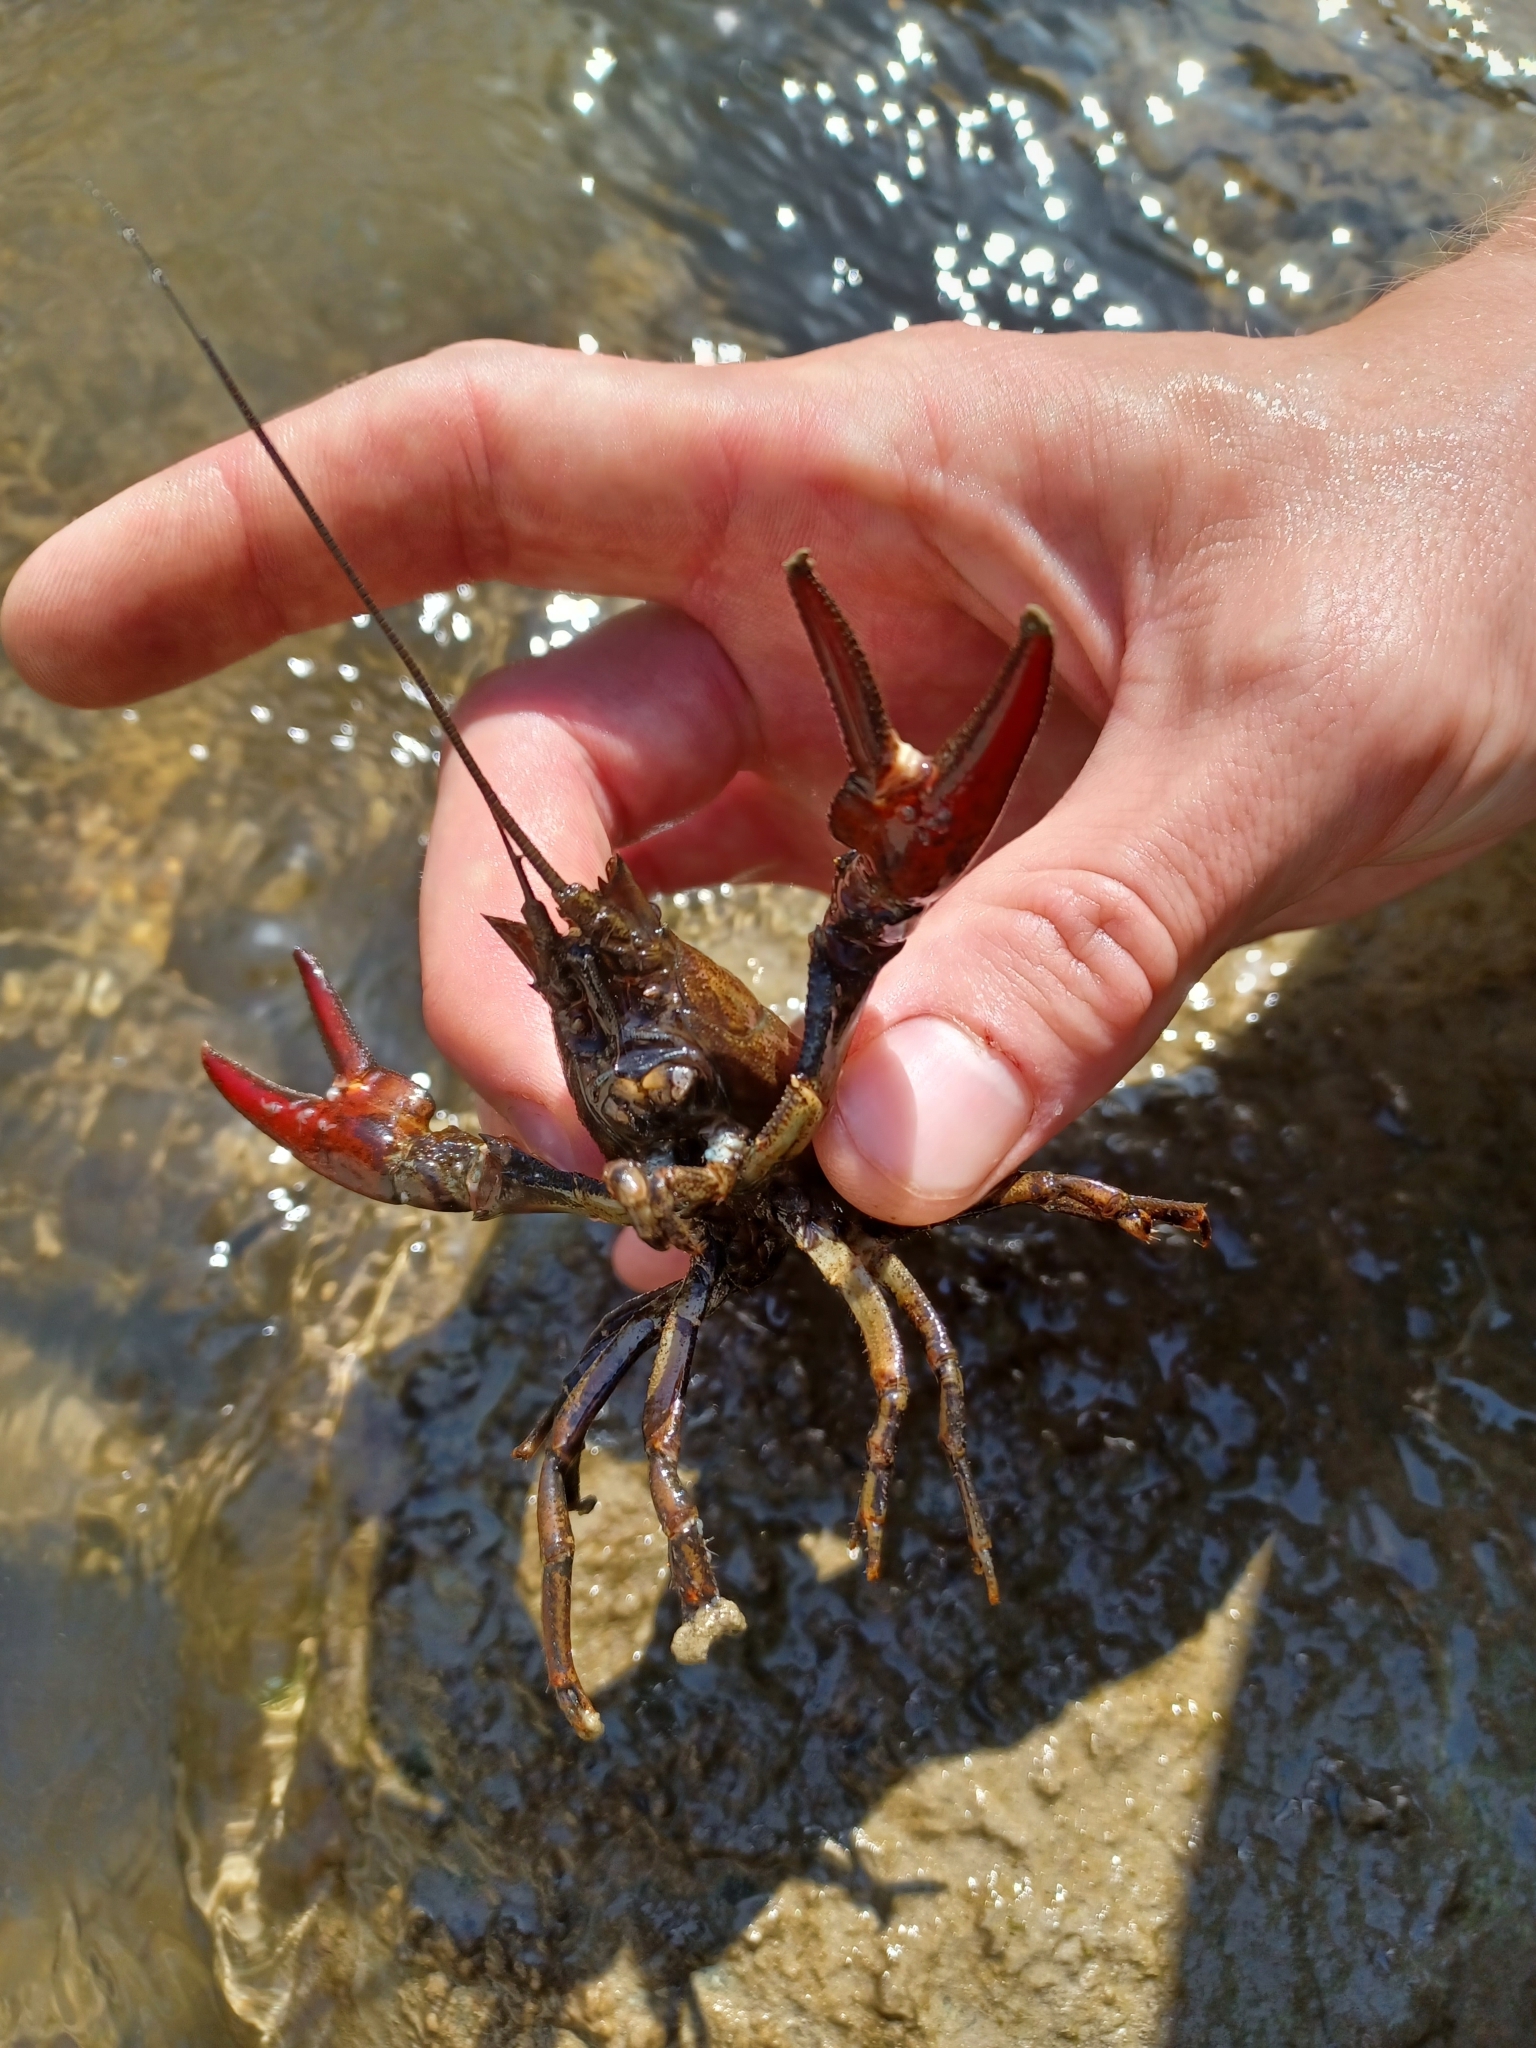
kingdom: Animalia
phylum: Arthropoda
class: Malacostraca
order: Decapoda
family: Astacidae
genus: Pacifastacus
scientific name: Pacifastacus leniusculus
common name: Signal crayfish
